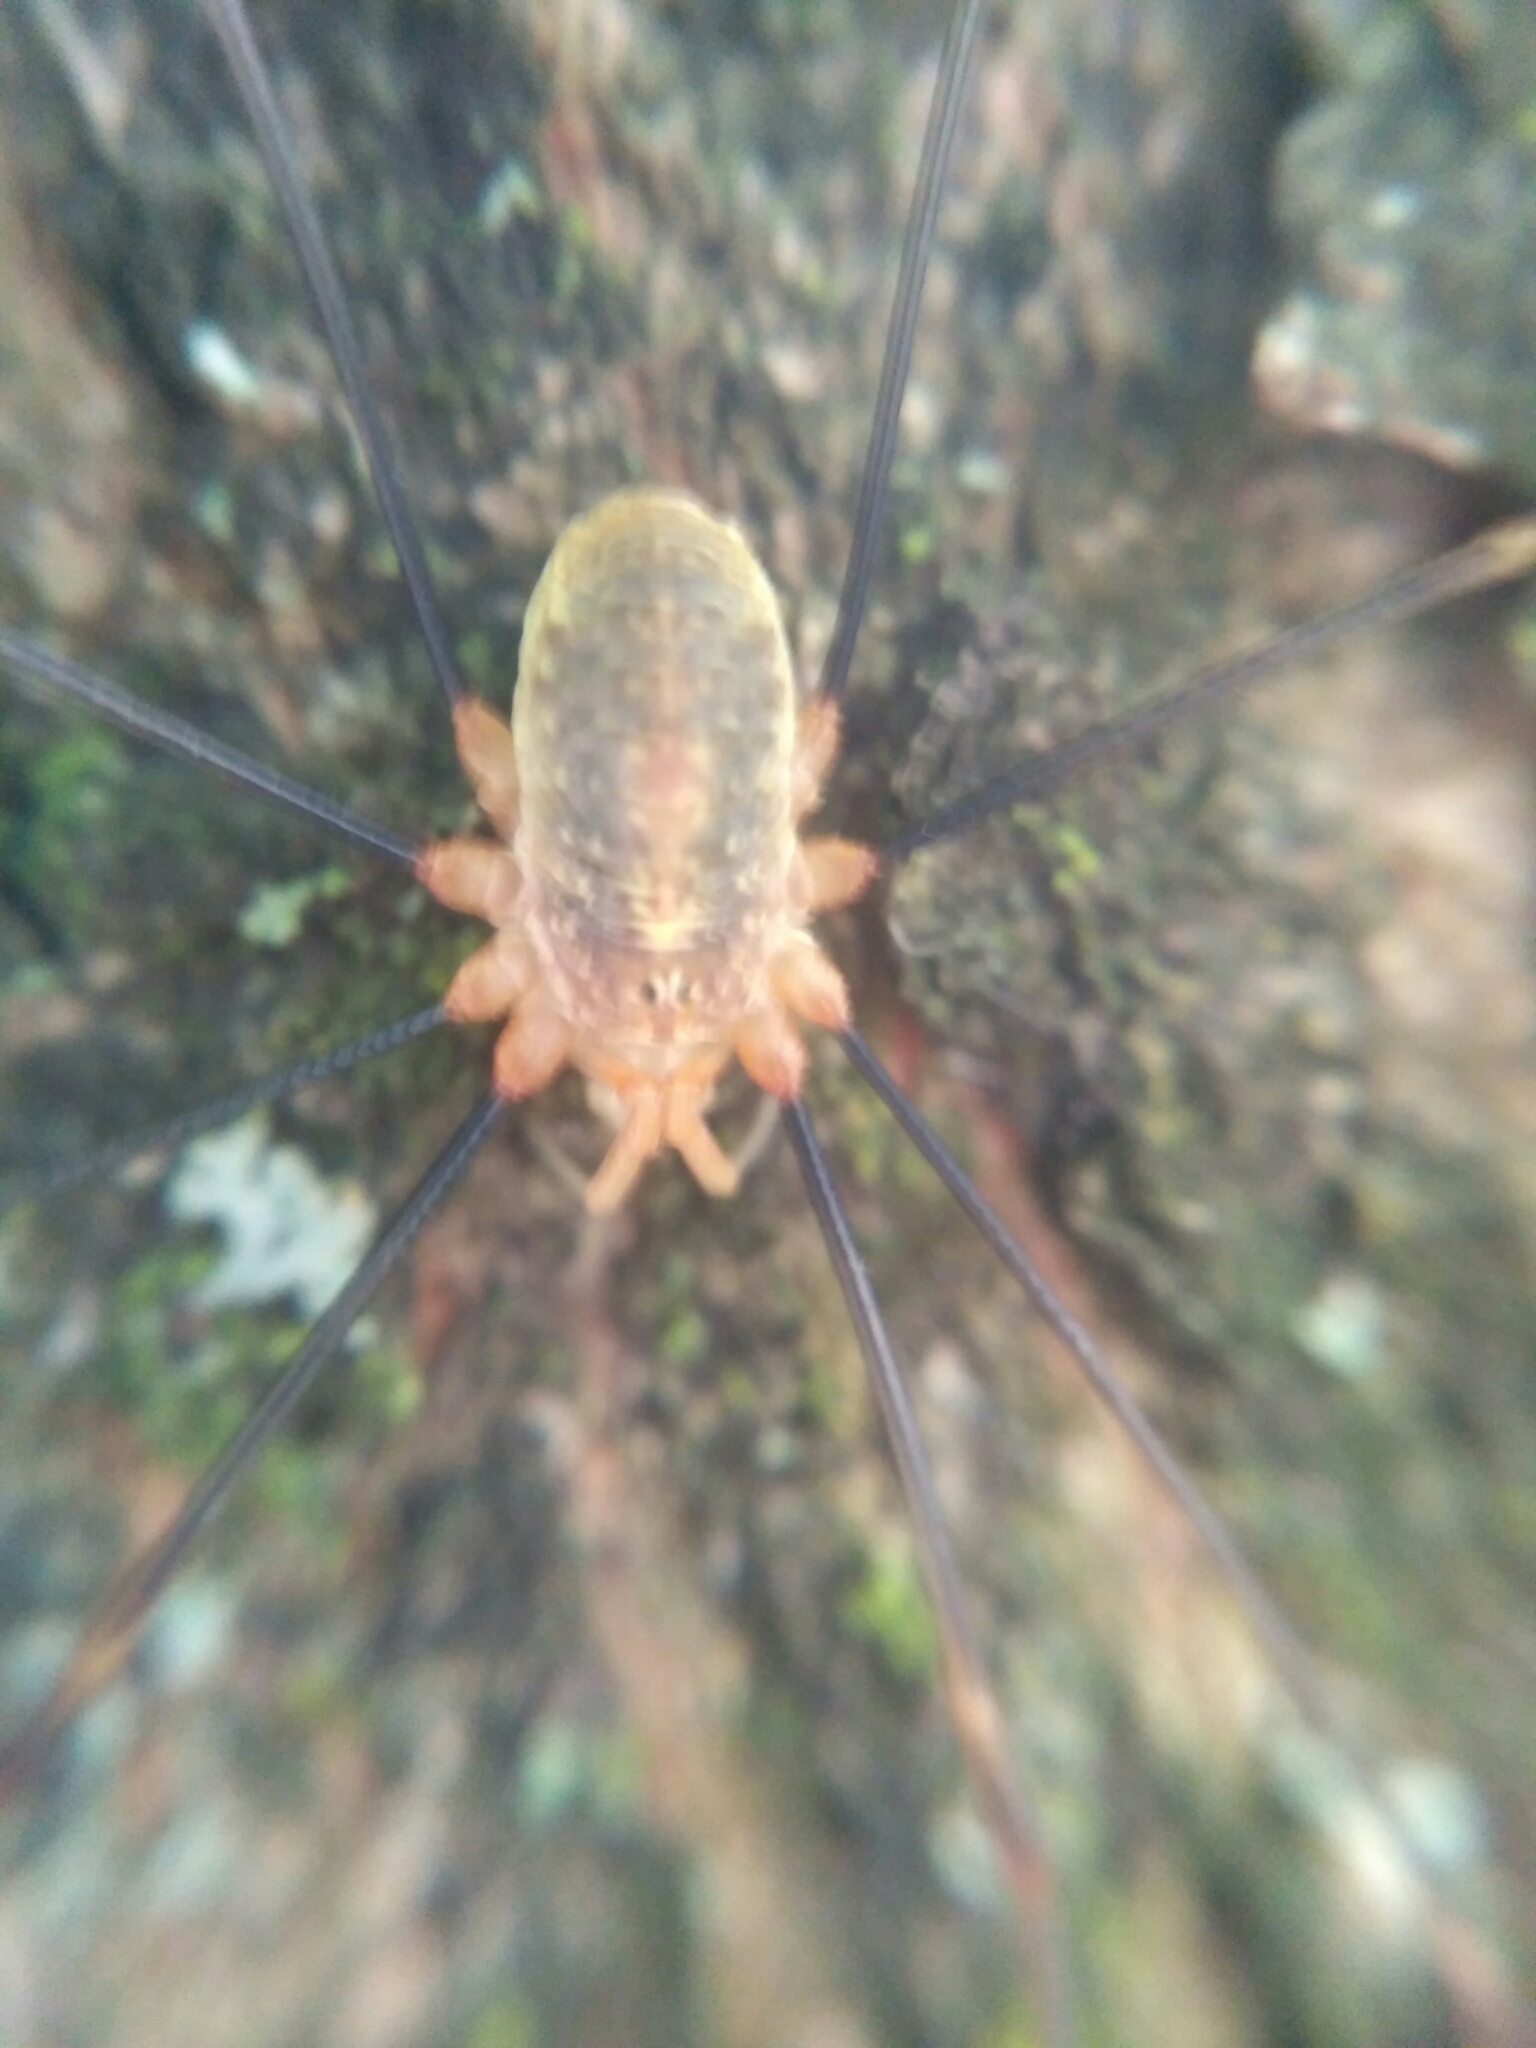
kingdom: Animalia
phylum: Arthropoda
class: Arachnida
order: Opiliones
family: Phalangiidae
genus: Opilio
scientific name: Opilio canestrinii
